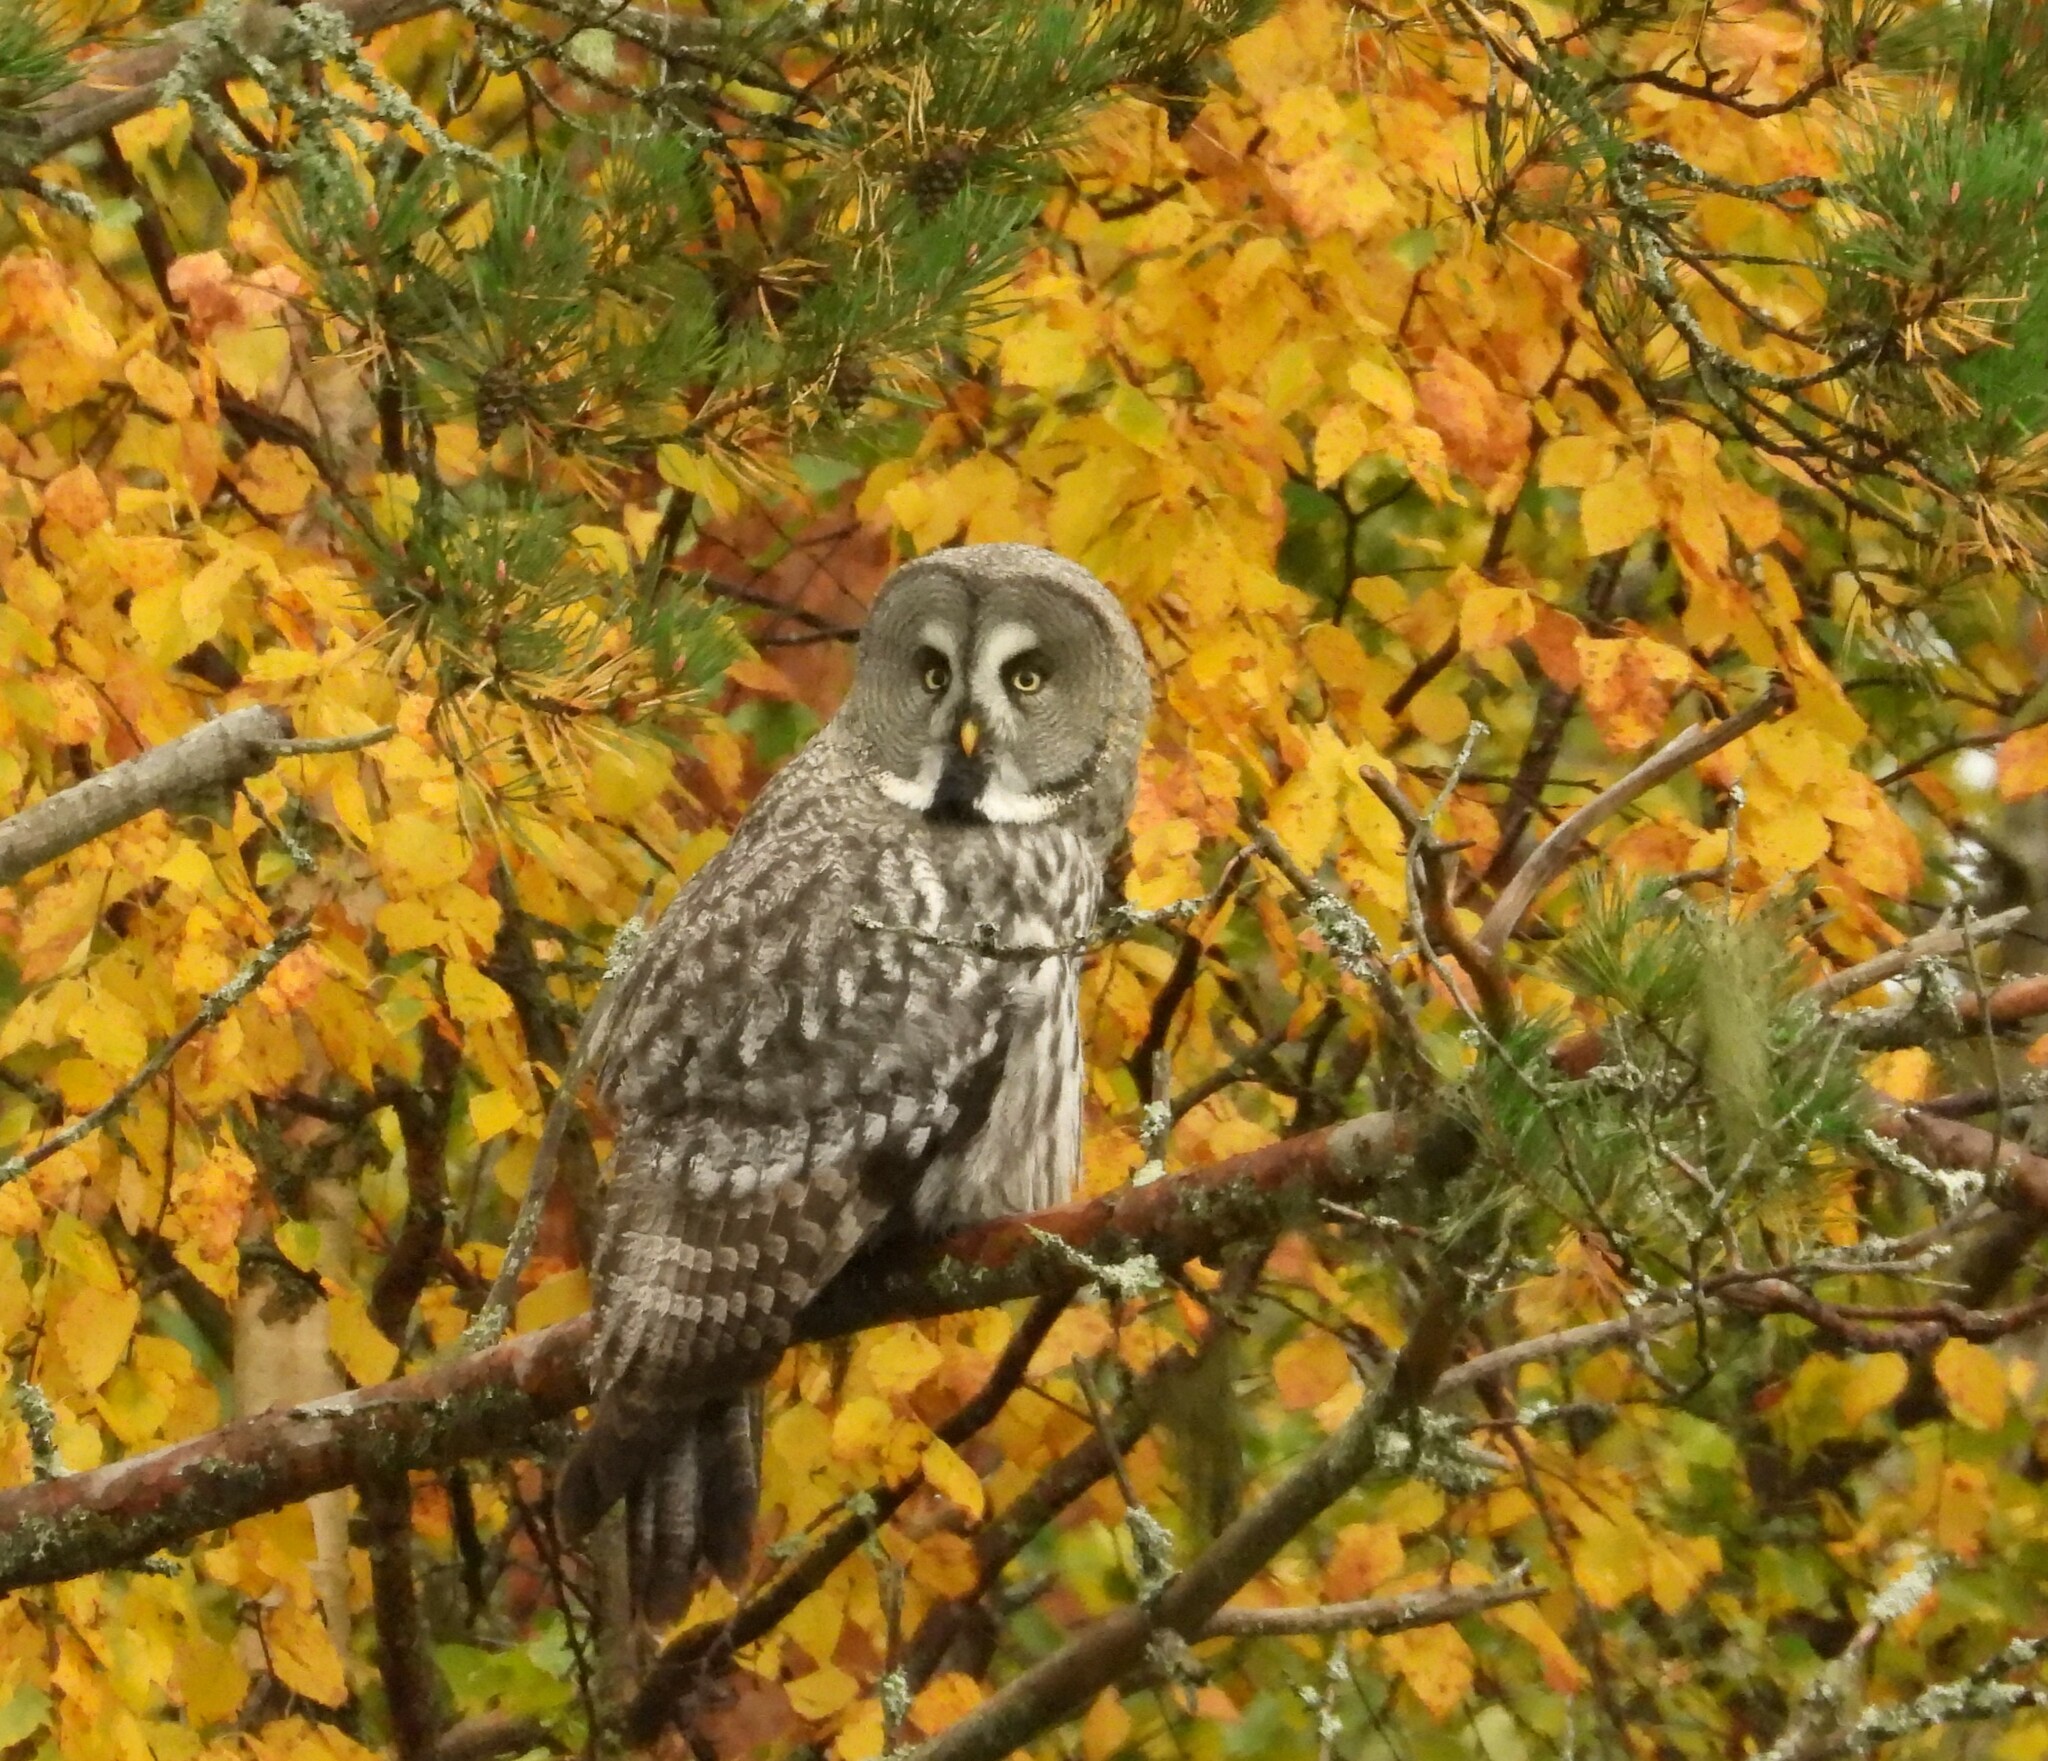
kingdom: Animalia
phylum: Chordata
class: Aves
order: Strigiformes
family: Strigidae
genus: Strix
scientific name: Strix nebulosa
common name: Great grey owl
